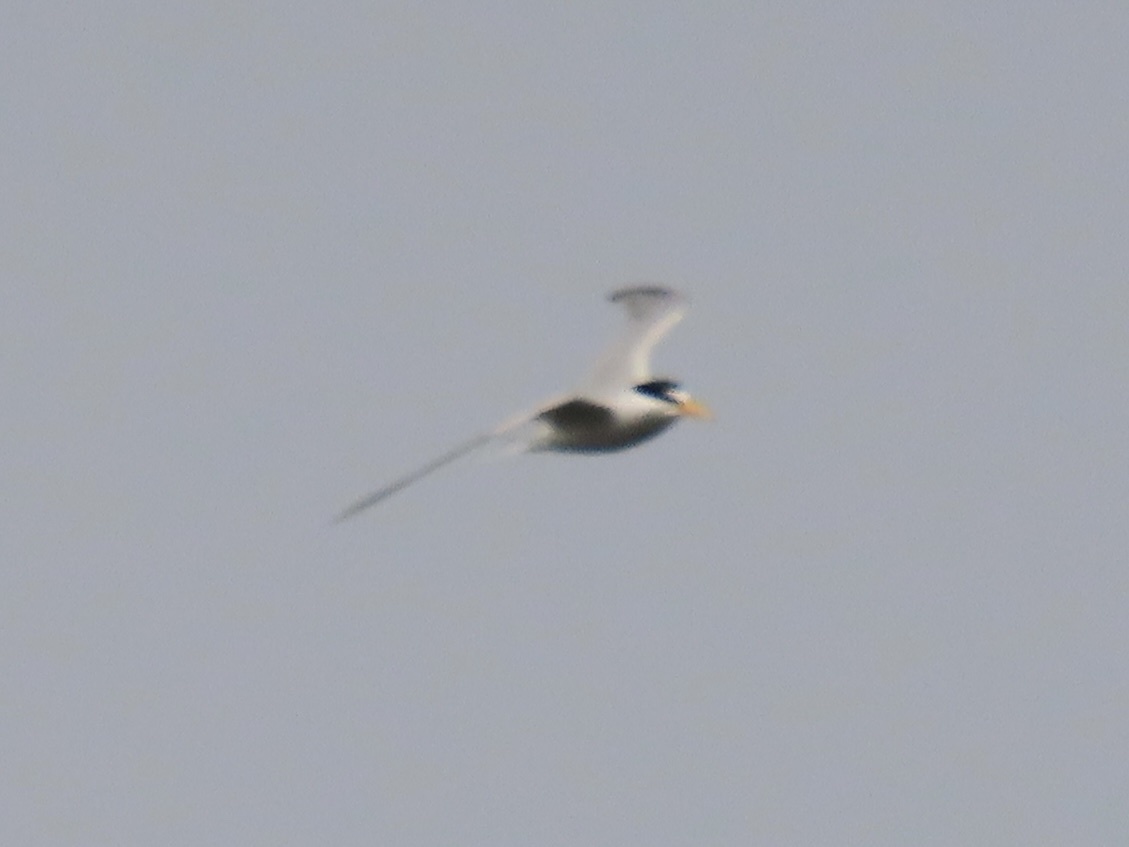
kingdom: Animalia
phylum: Chordata
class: Aves
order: Charadriiformes
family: Laridae
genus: Sternula
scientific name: Sternula antillarum
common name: Least tern
